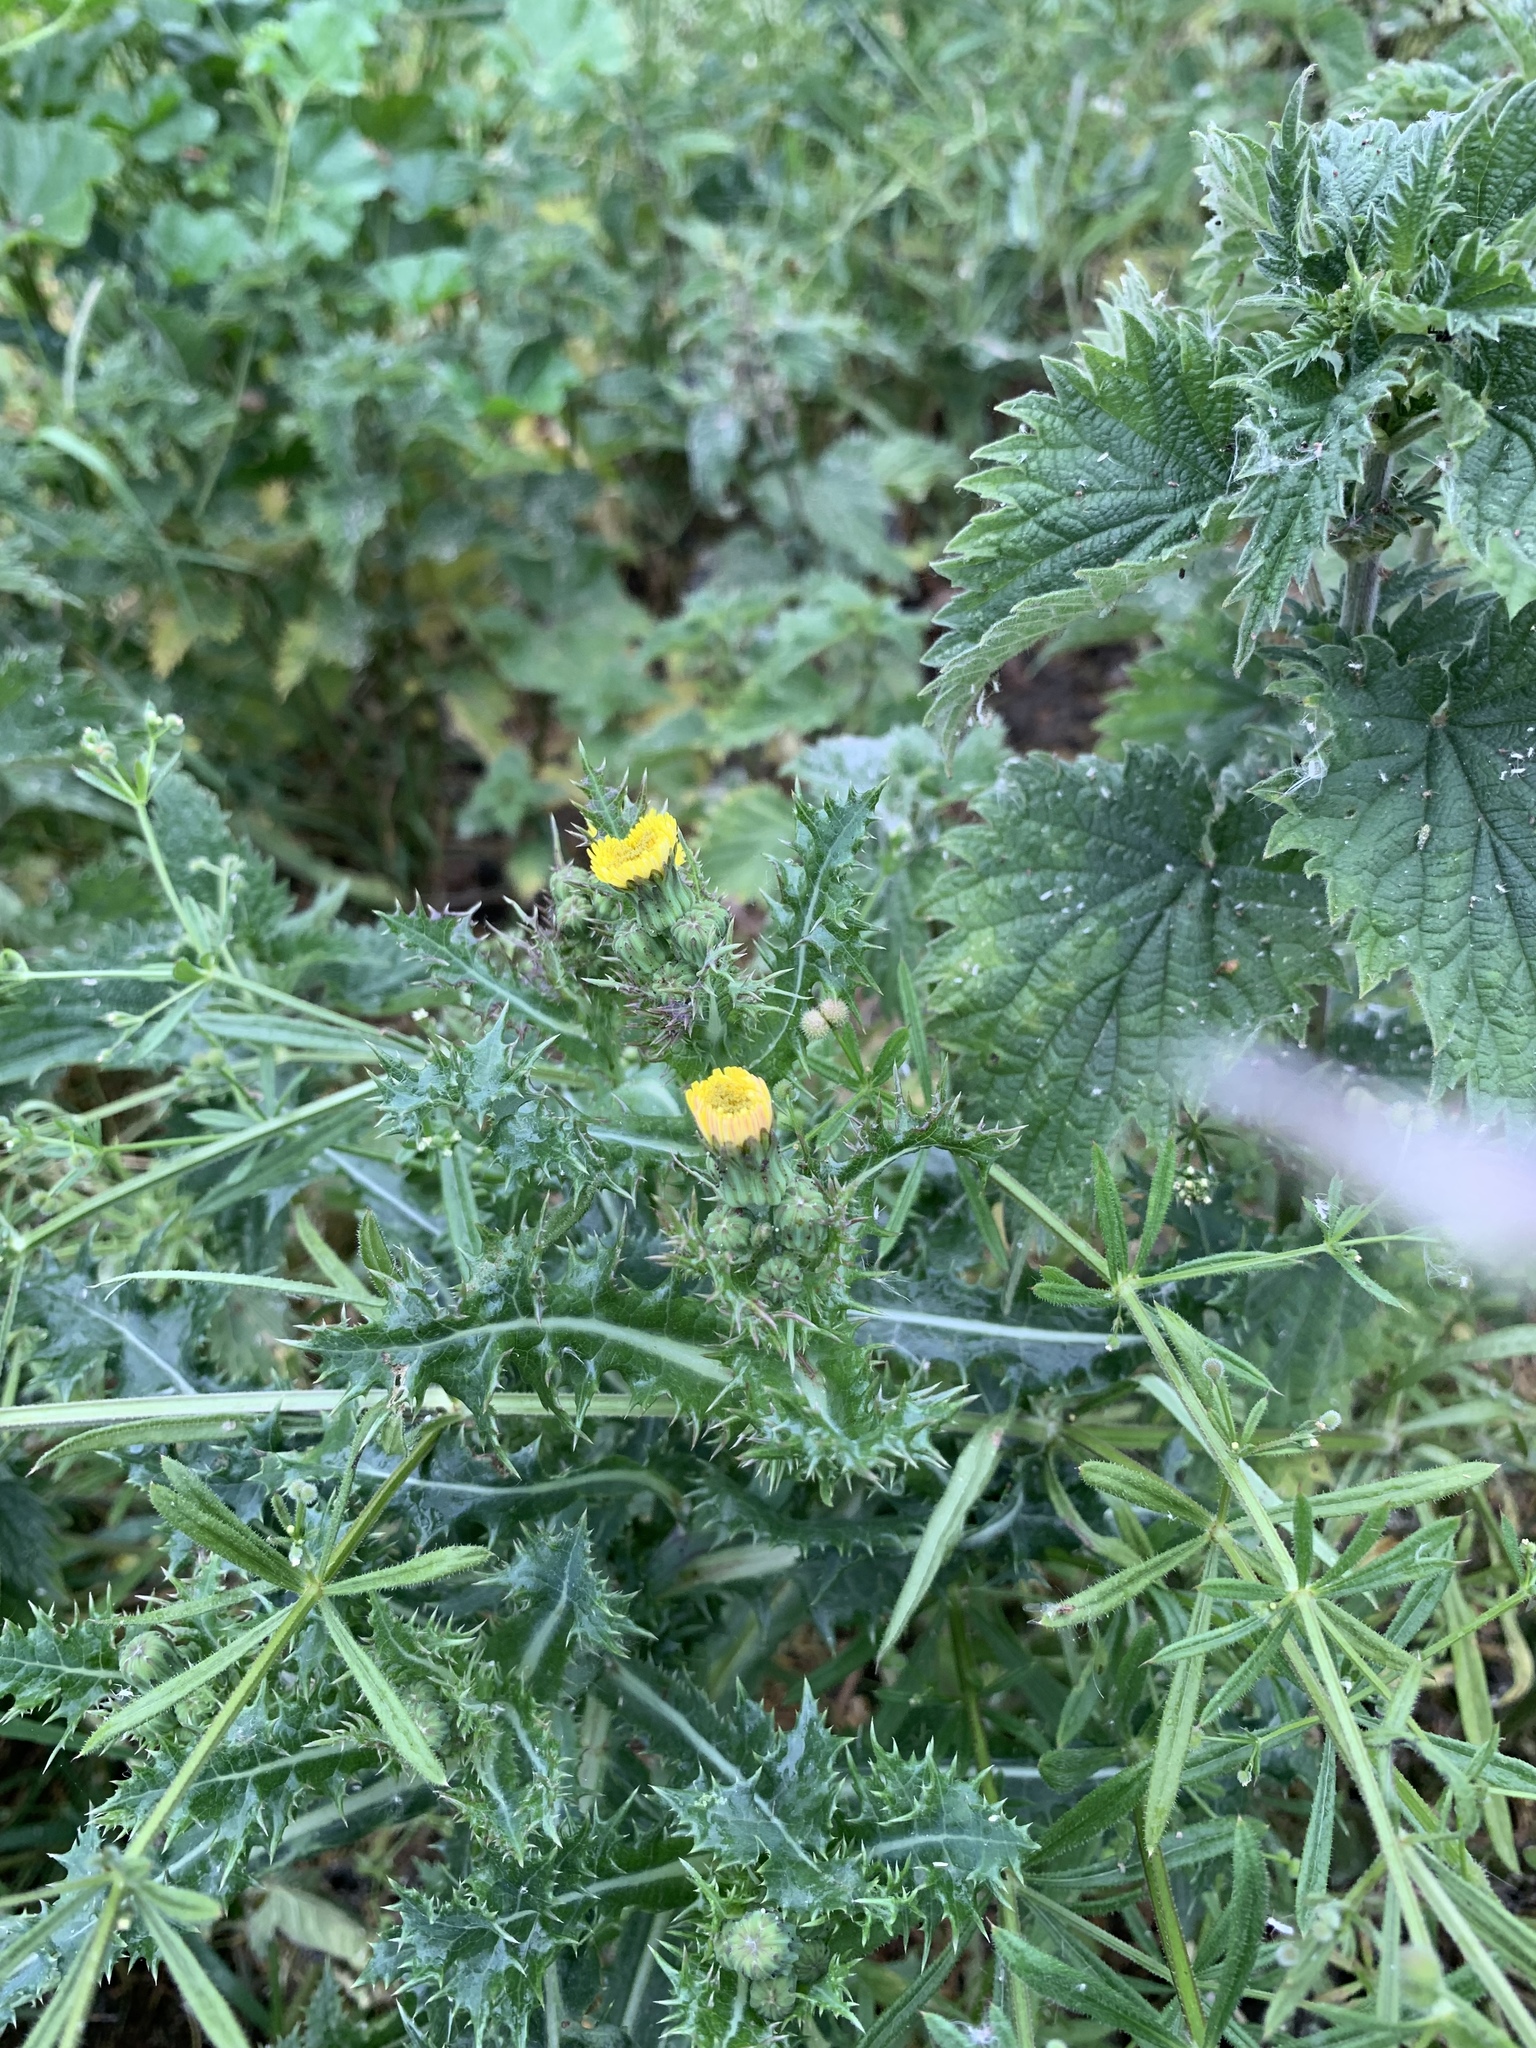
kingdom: Plantae
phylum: Tracheophyta
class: Magnoliopsida
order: Asterales
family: Asteraceae
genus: Sonchus
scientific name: Sonchus asper
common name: Prickly sow-thistle
